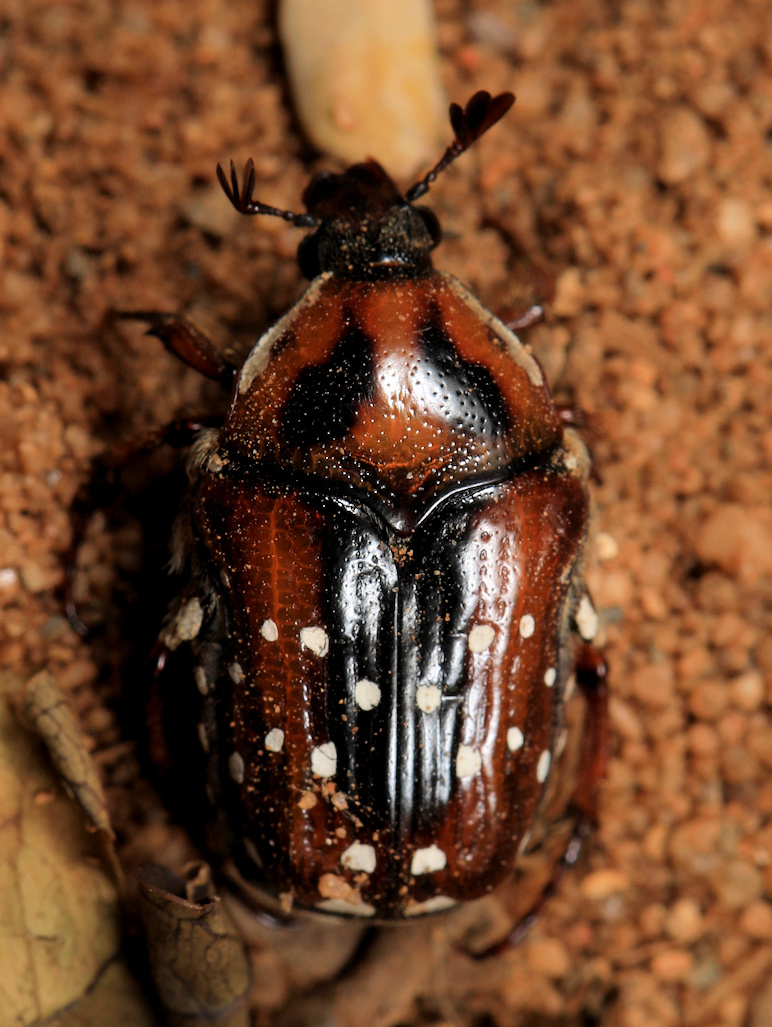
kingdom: Animalia
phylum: Arthropoda
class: Insecta
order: Coleoptera
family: Scarabaeidae
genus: Clinteroides
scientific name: Clinteroides permutans
